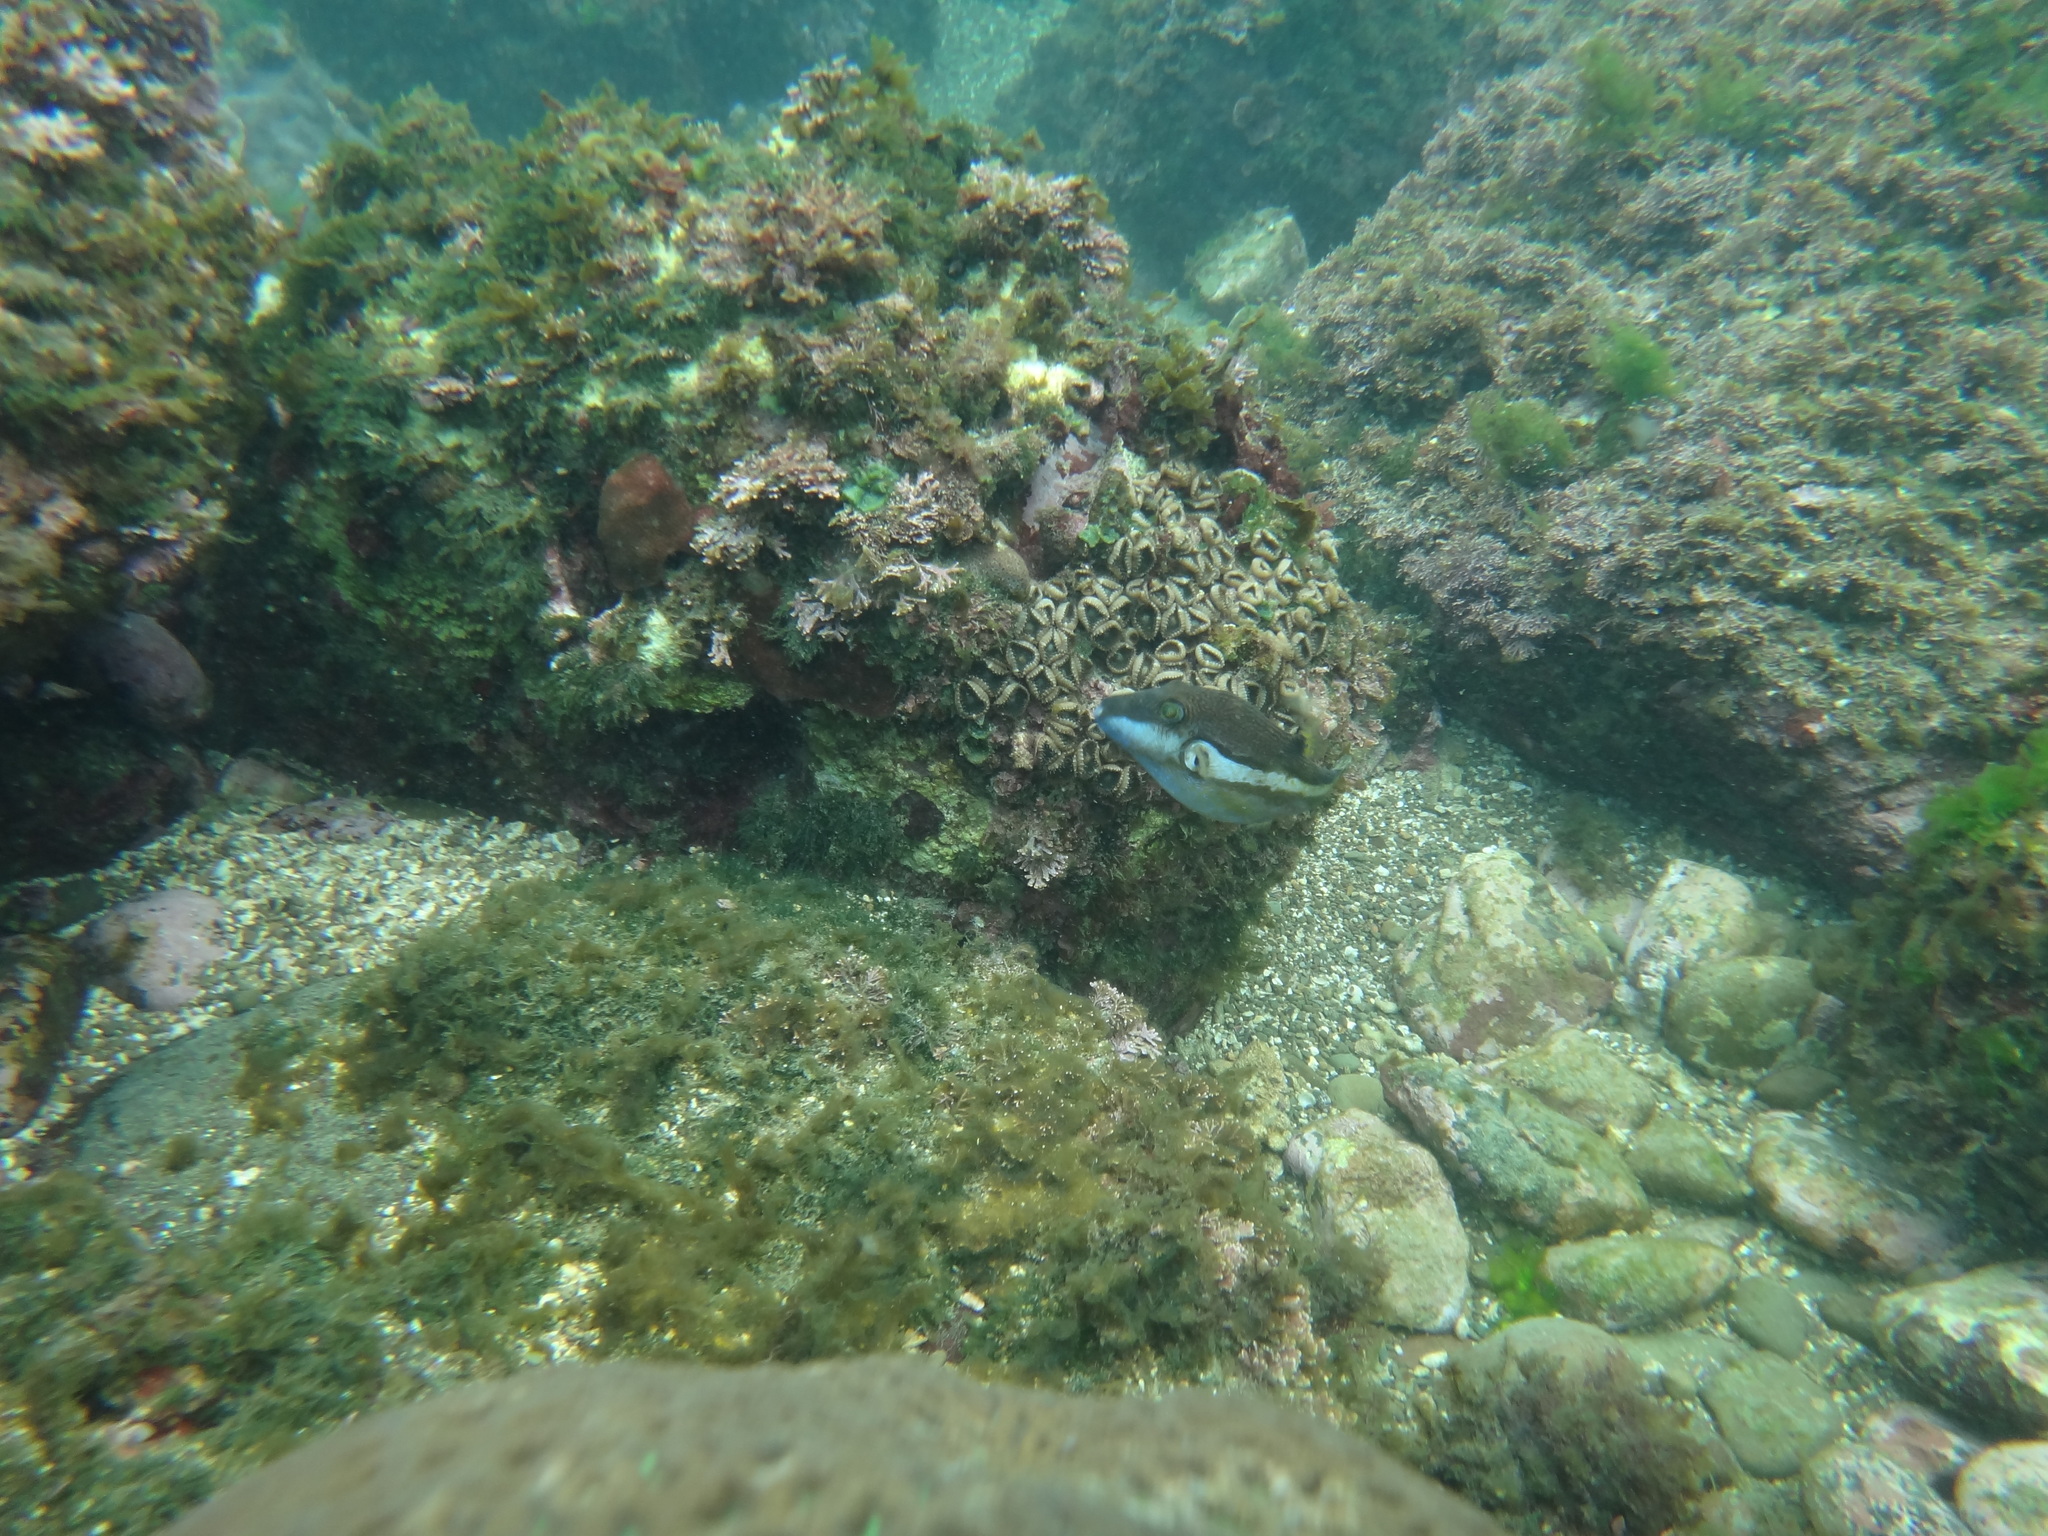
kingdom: Animalia
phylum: Chordata
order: Tetraodontiformes
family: Tetraodontidae
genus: Canthigaster
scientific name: Canthigaster rivulata
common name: Brown-lined puffer
